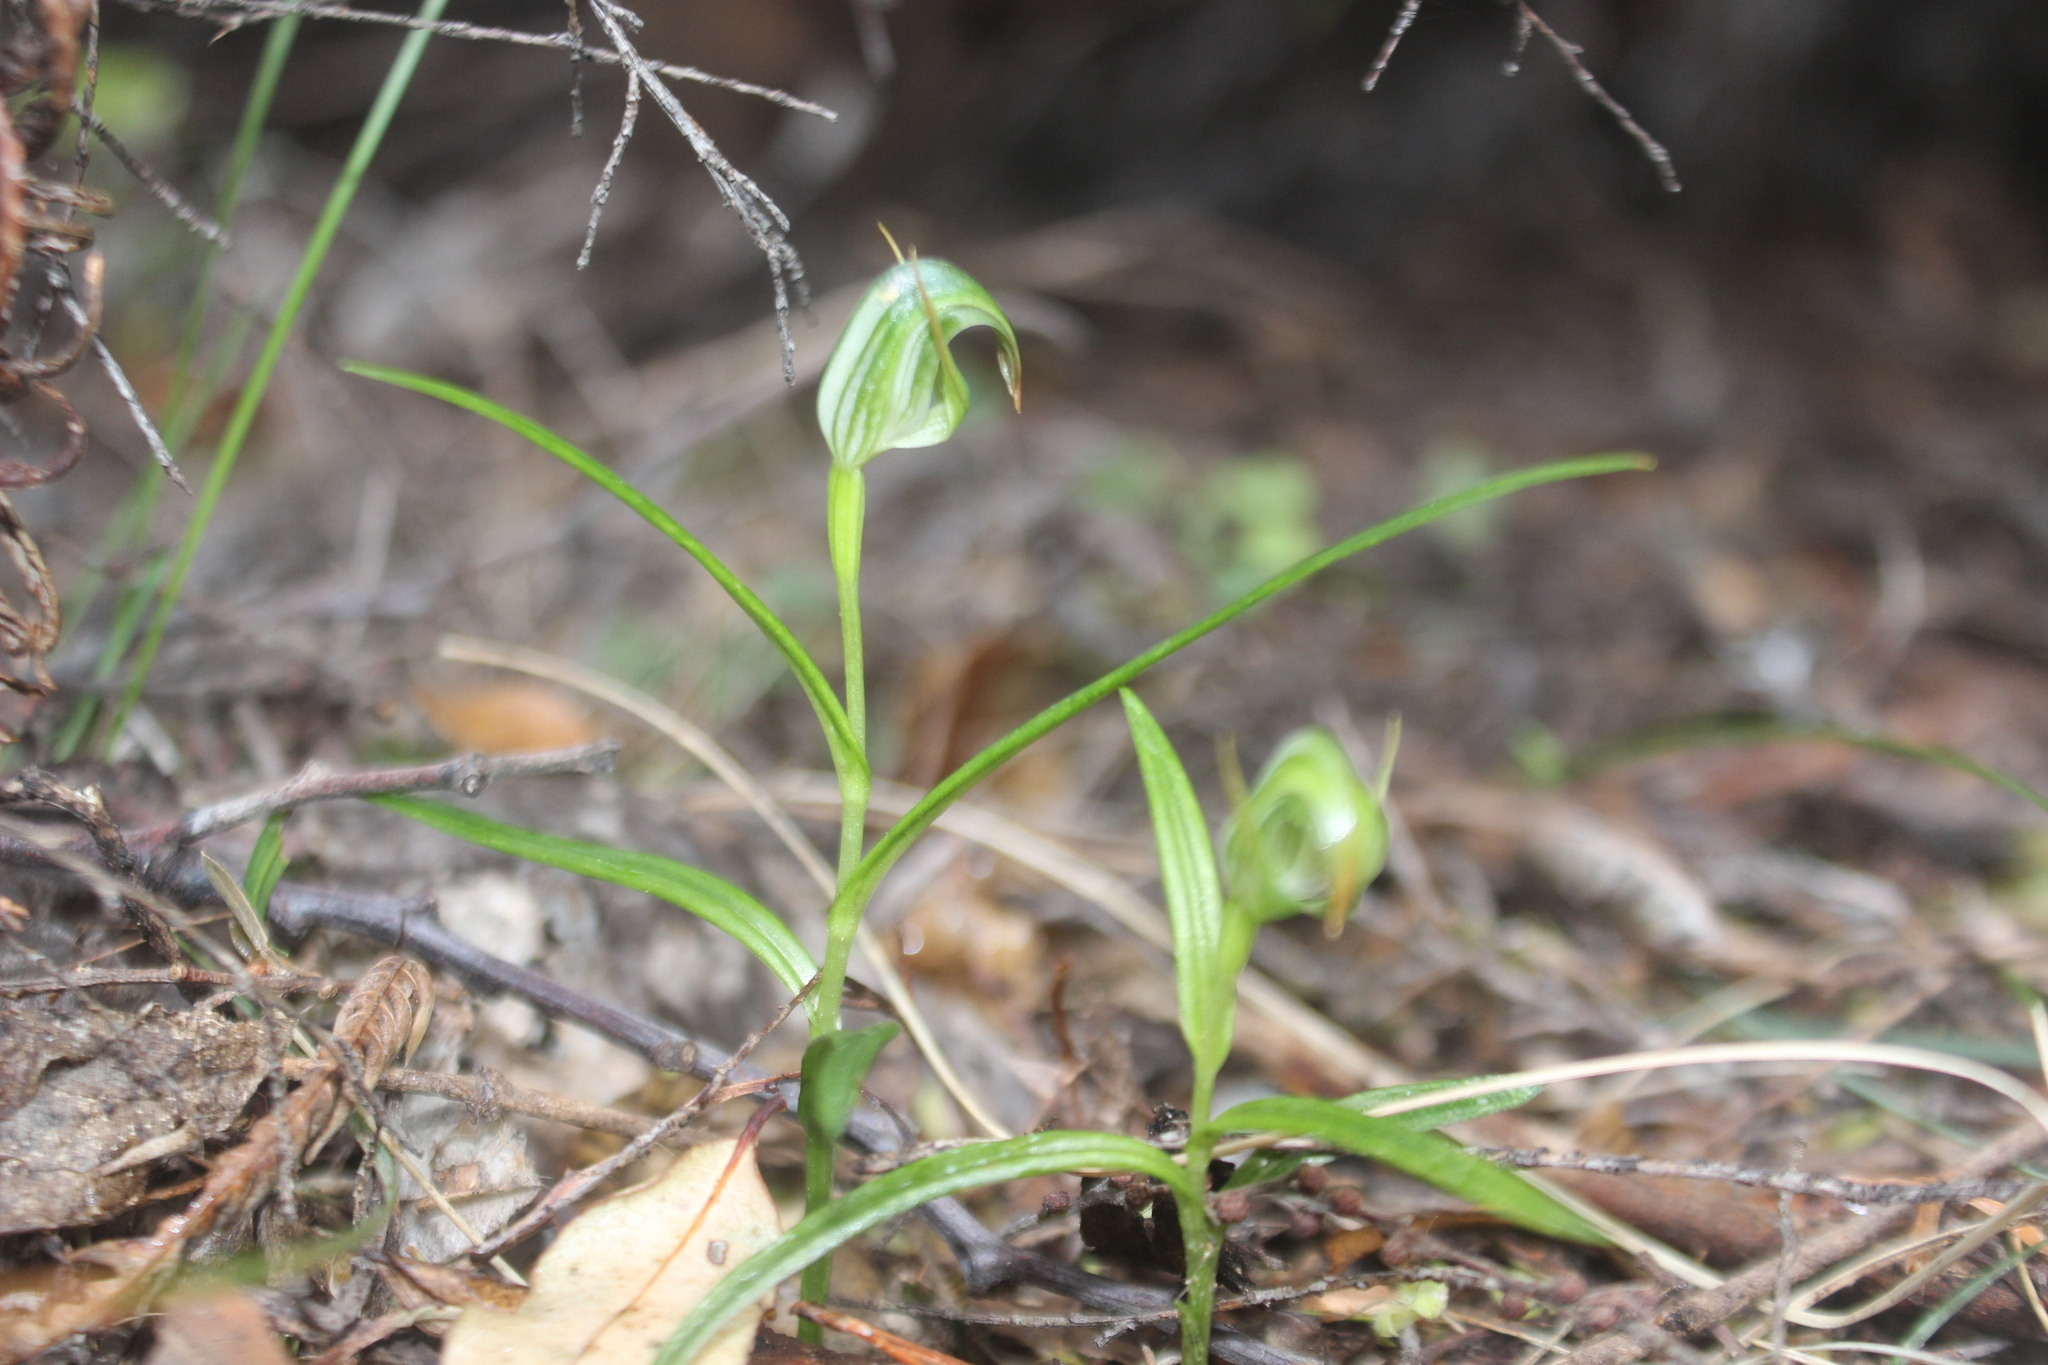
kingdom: Plantae
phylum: Tracheophyta
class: Liliopsida
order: Asparagales
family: Orchidaceae
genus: Pterostylis
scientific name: Pterostylis graminea
